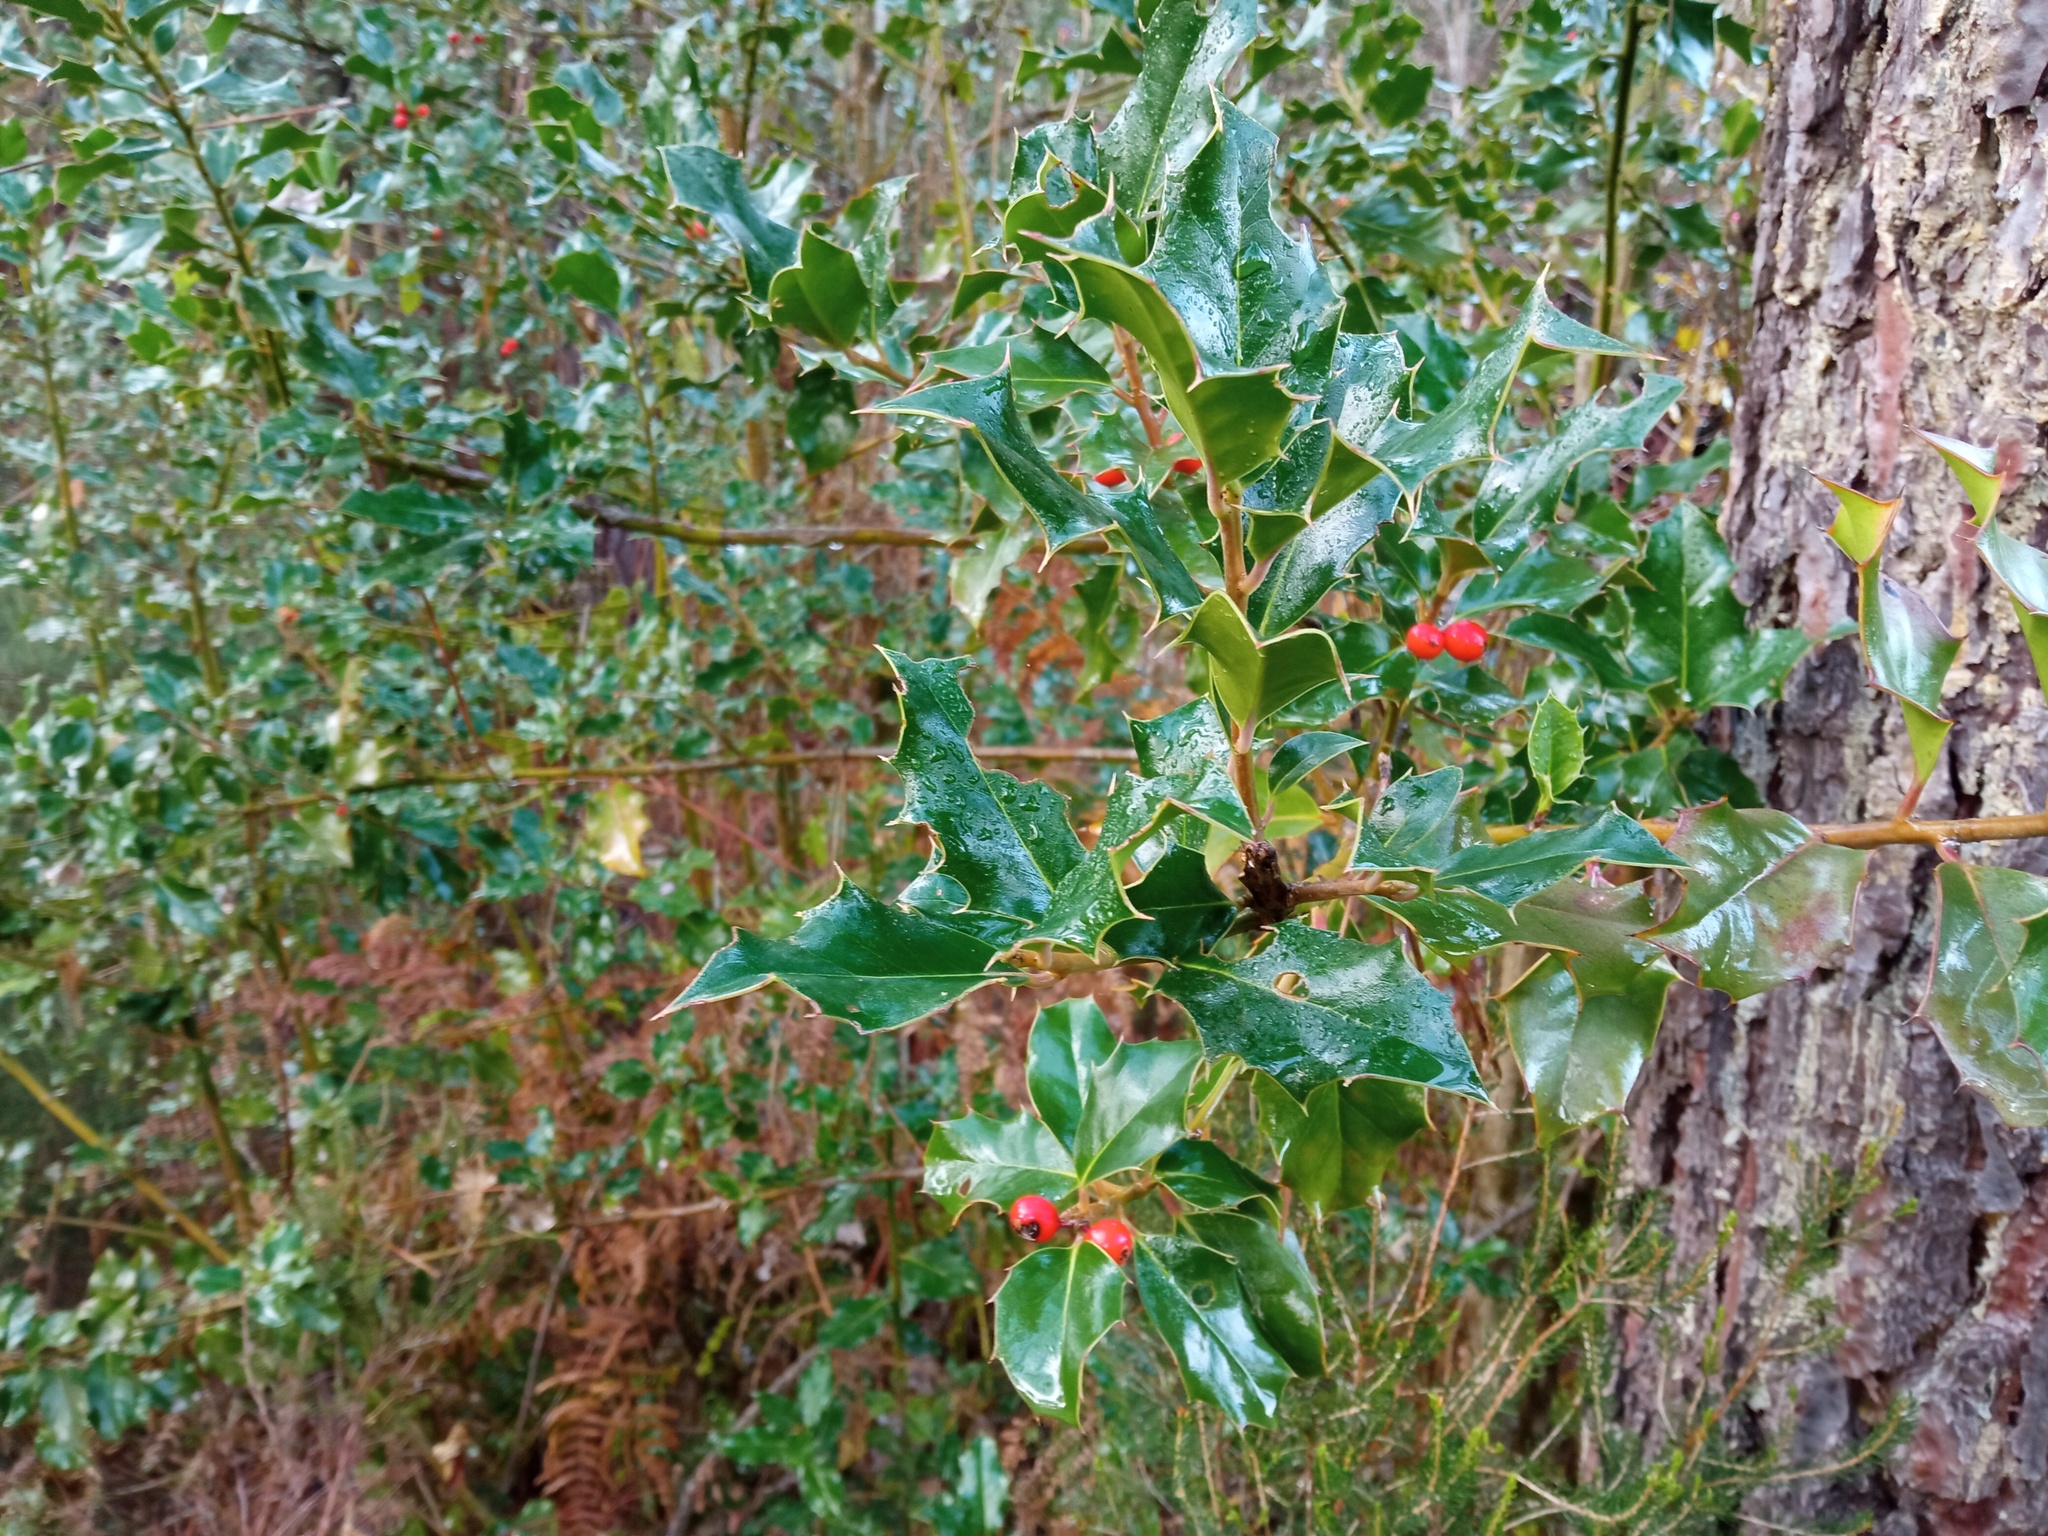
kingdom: Plantae
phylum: Tracheophyta
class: Magnoliopsida
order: Aquifoliales
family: Aquifoliaceae
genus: Ilex
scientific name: Ilex aquifolium
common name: English holly
